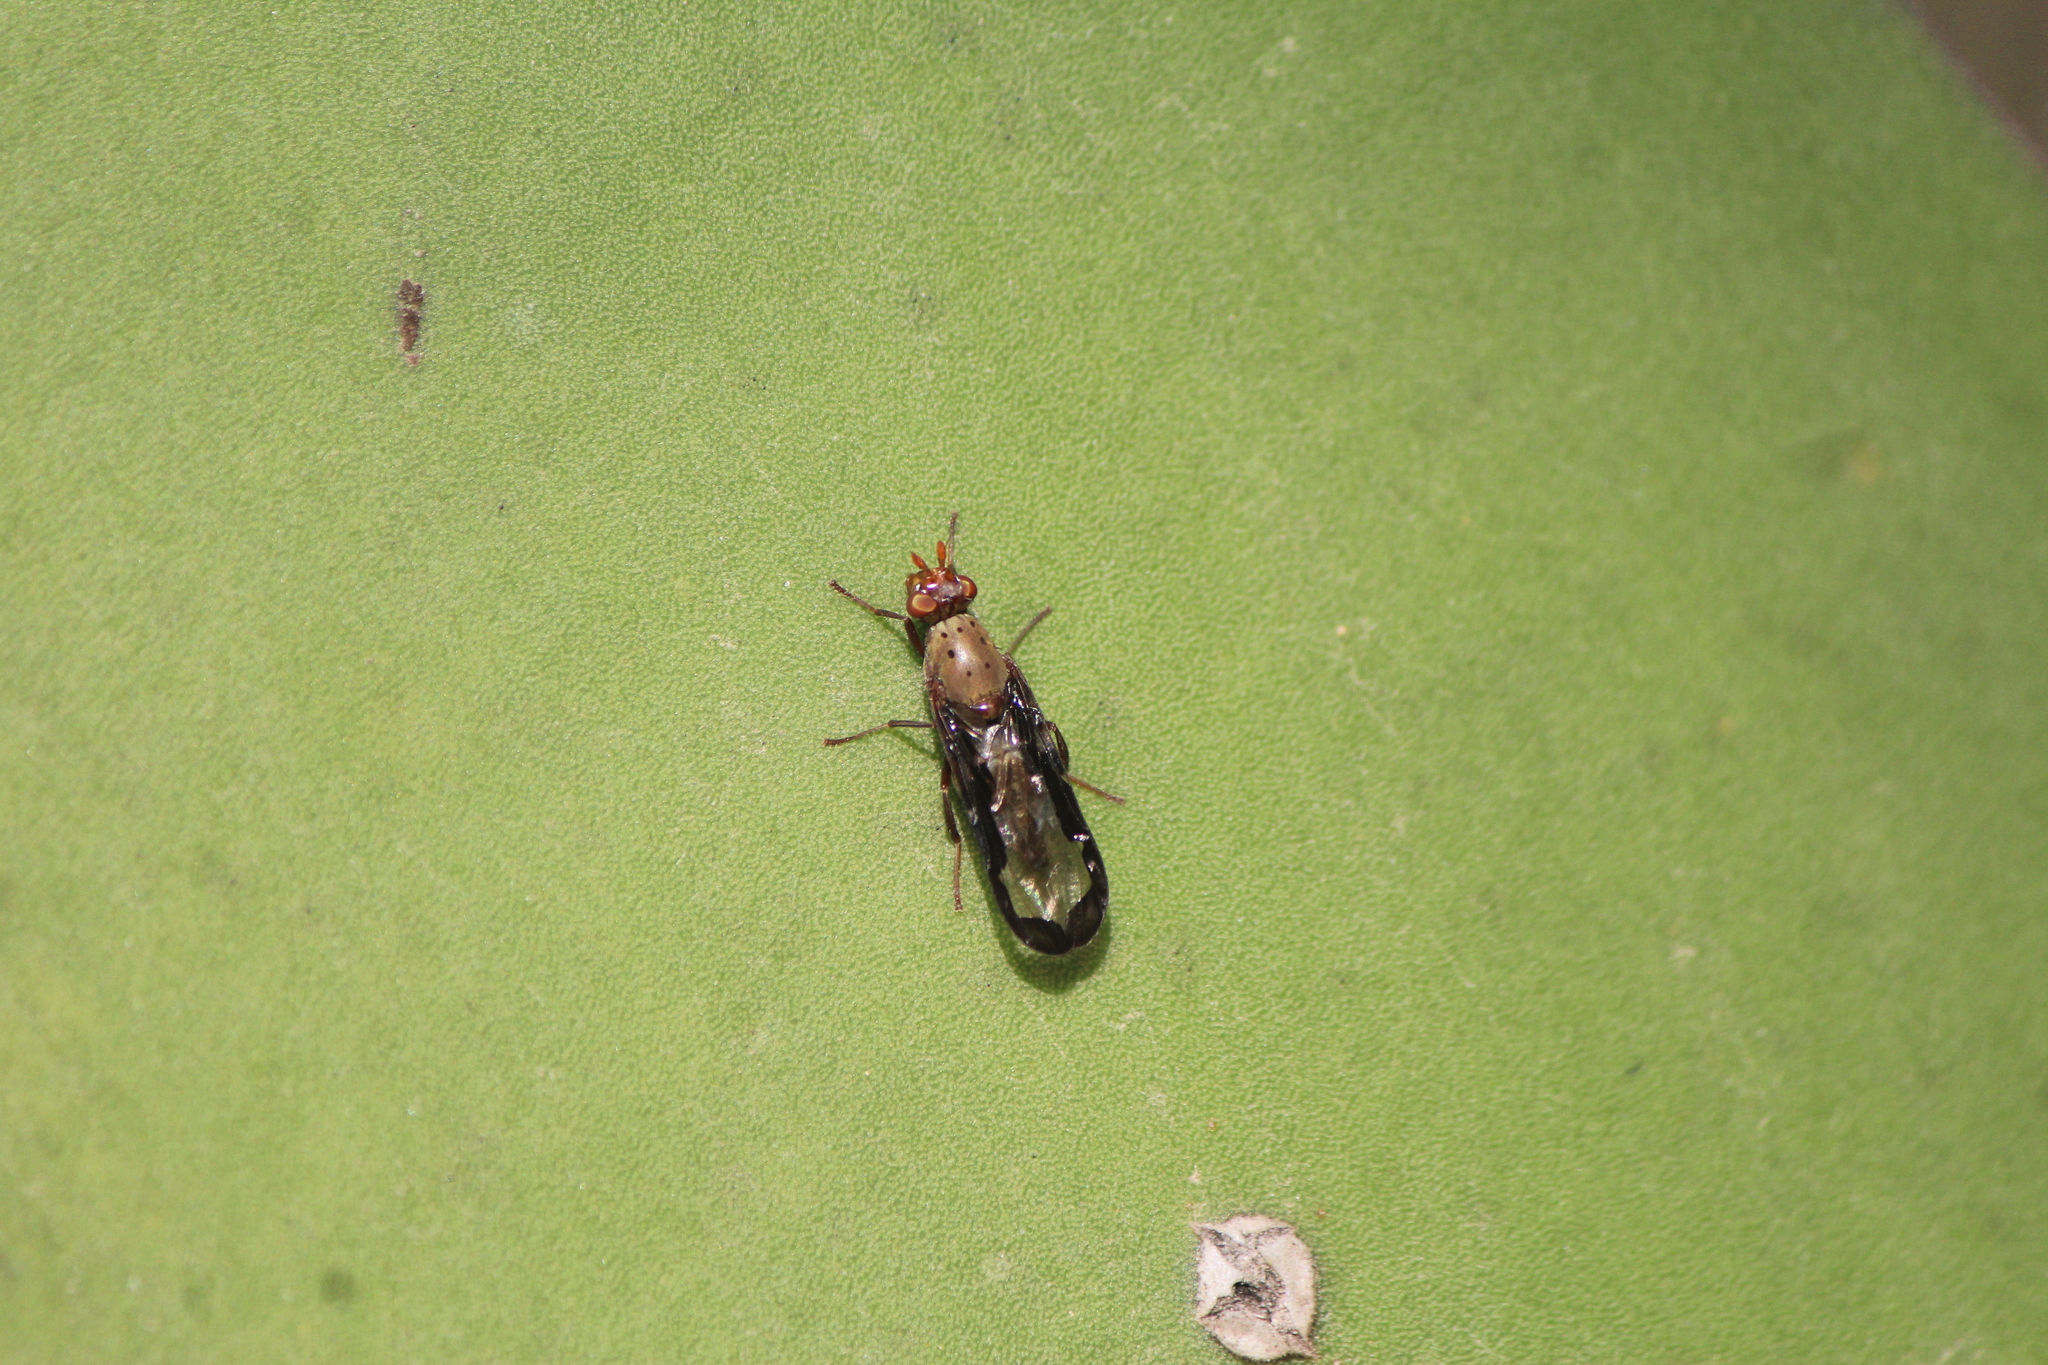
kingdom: Animalia
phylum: Arthropoda
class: Insecta
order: Diptera
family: Ulidiidae
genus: Diacrita
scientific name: Diacrita costalis
